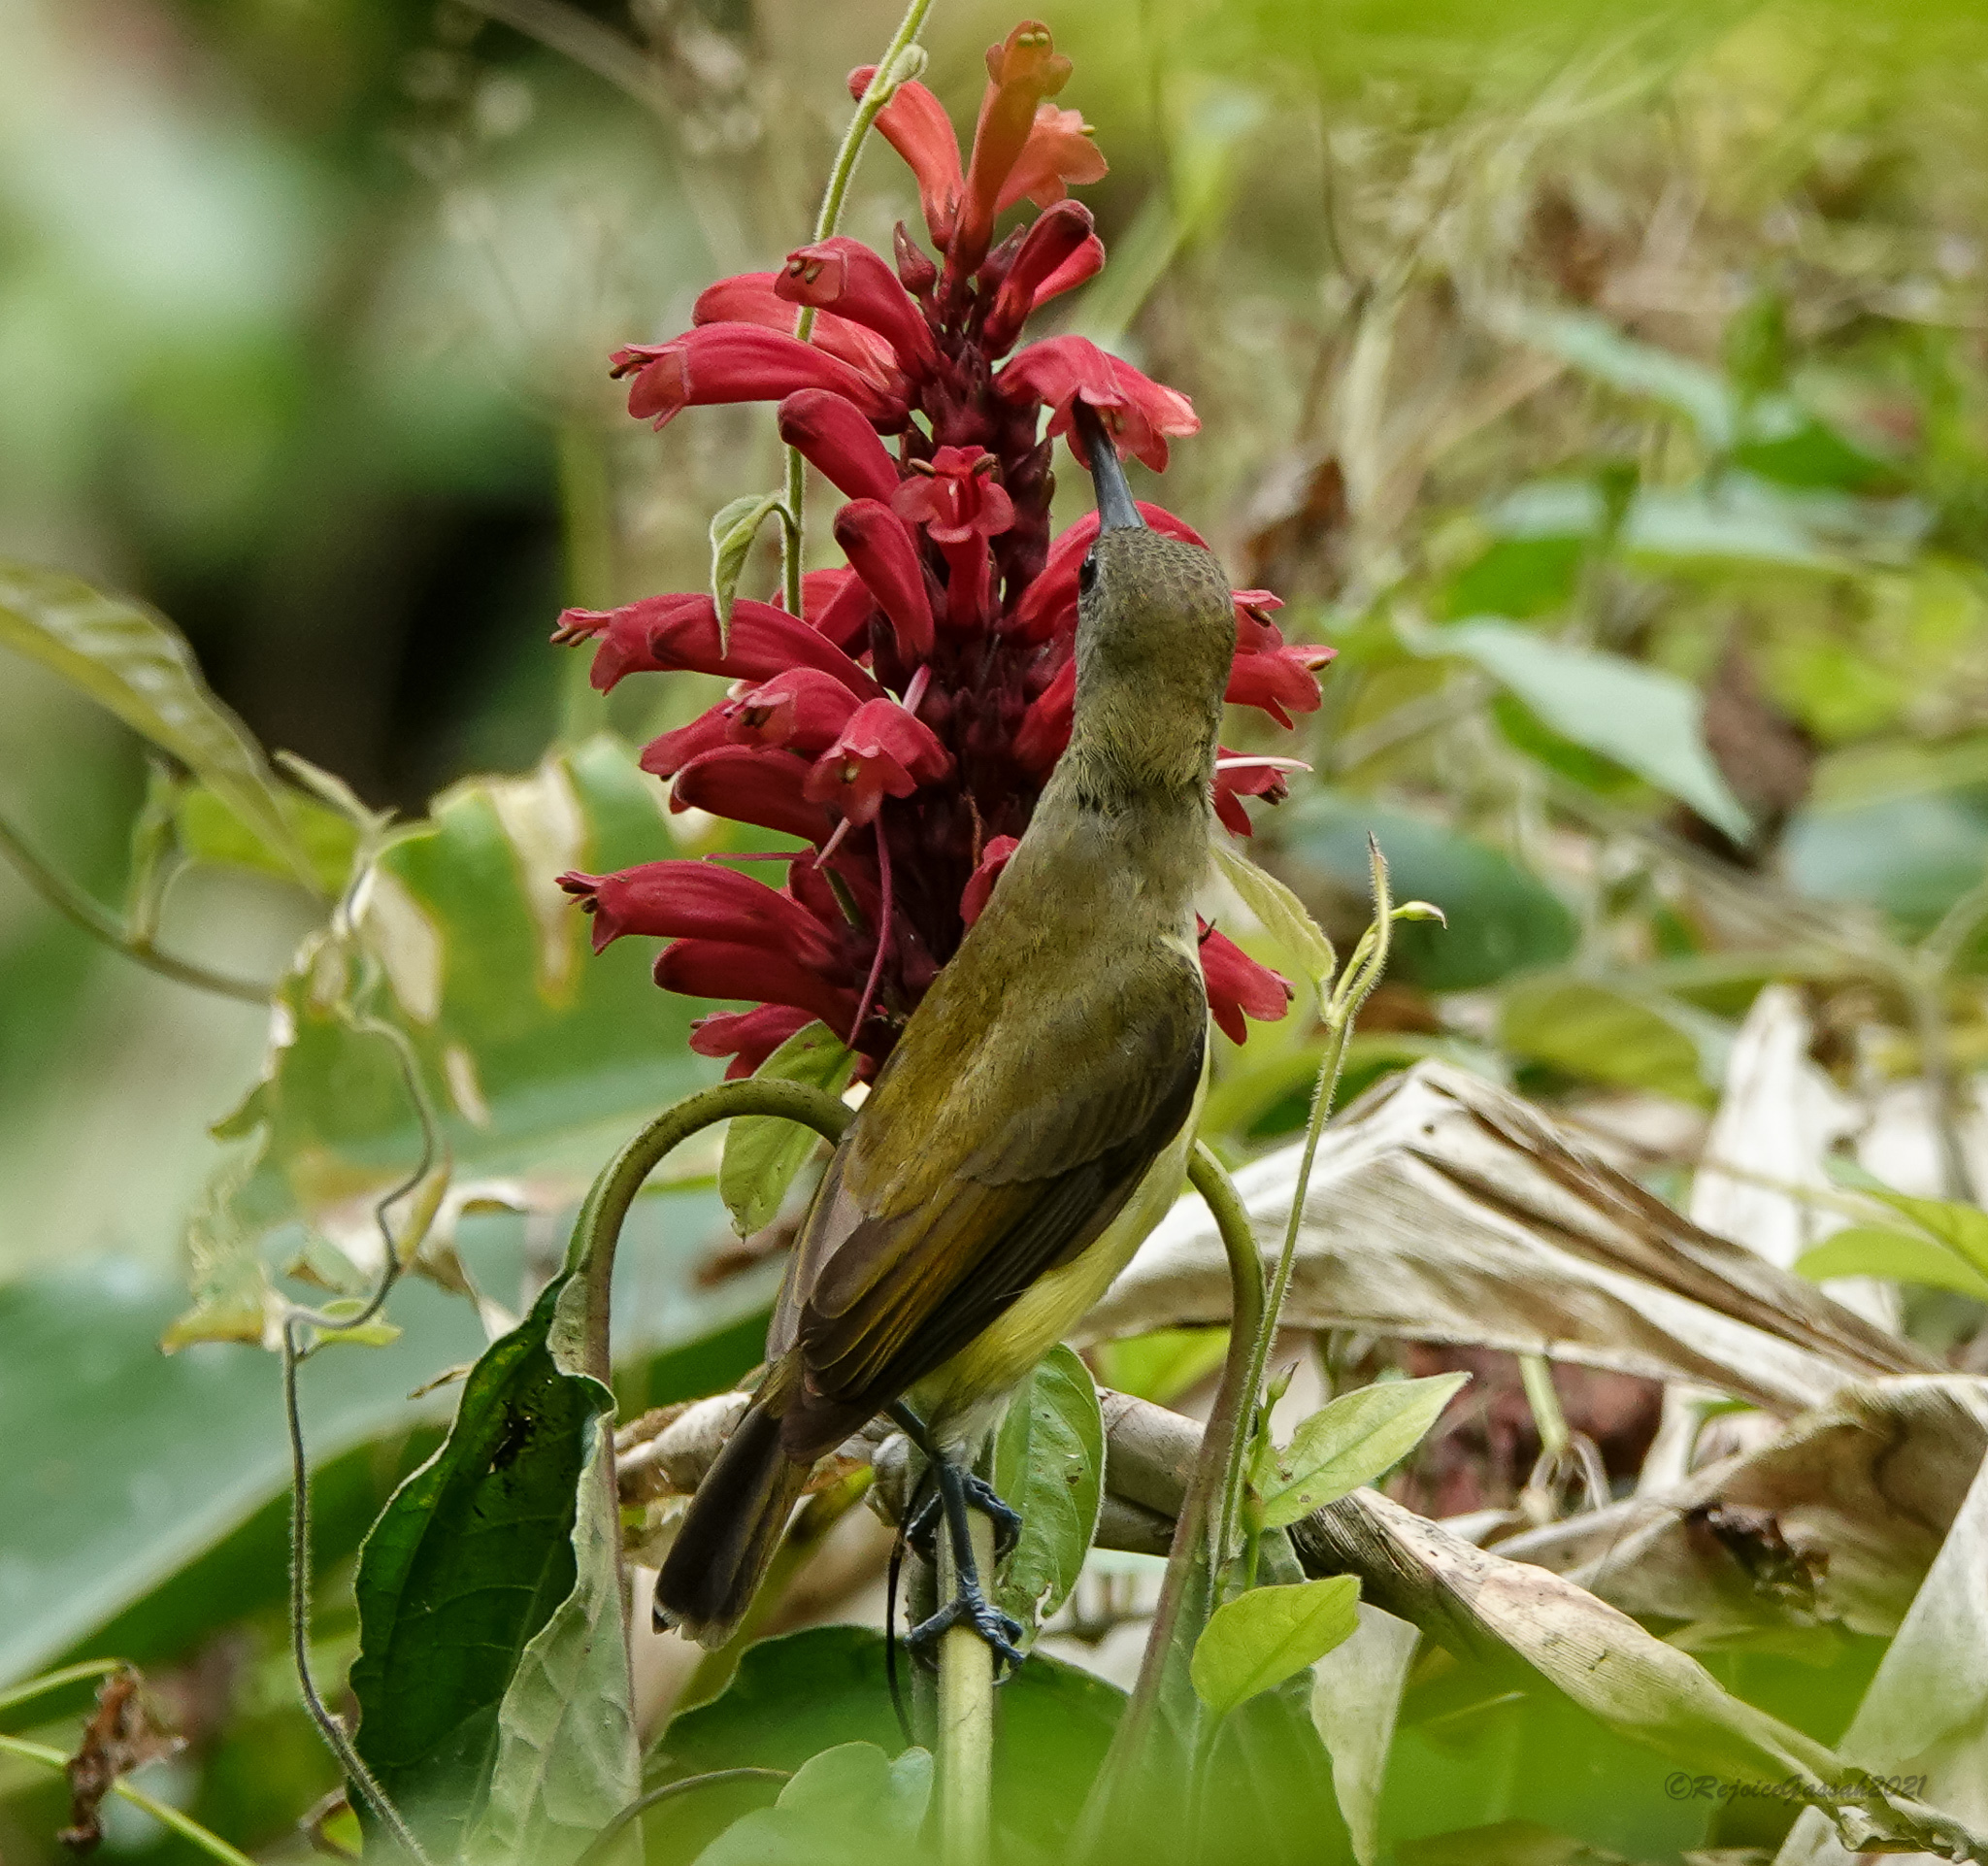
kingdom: Animalia
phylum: Chordata
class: Aves
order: Passeriformes
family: Nectariniidae
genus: Arachnothera
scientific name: Arachnothera longirostra
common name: Little spiderhunter
